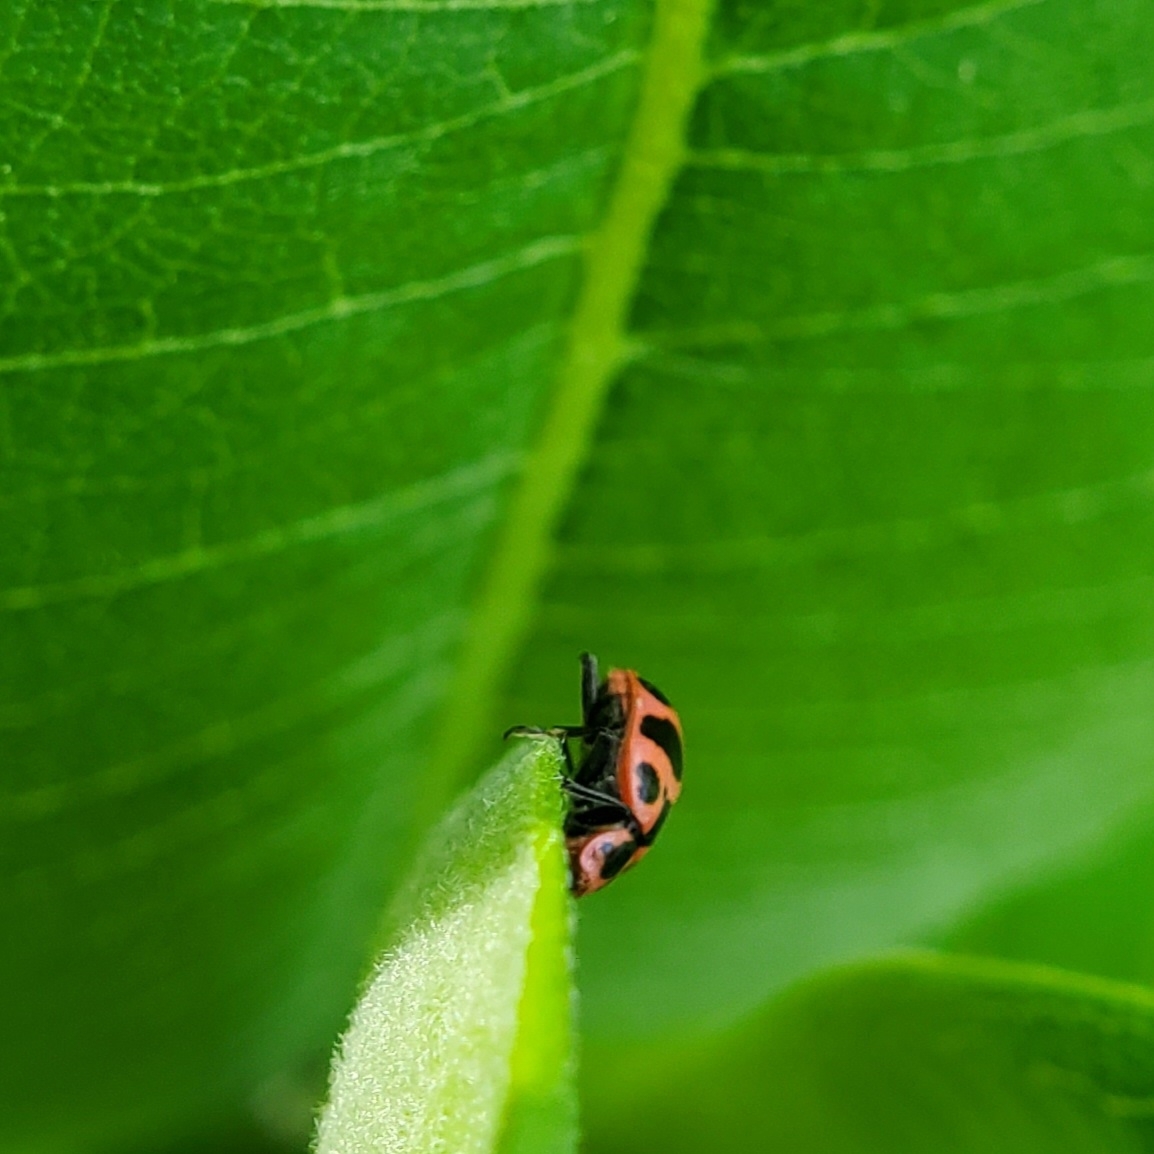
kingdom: Animalia
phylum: Arthropoda
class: Insecta
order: Coleoptera
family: Coccinellidae
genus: Coleomegilla
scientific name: Coleomegilla maculata
